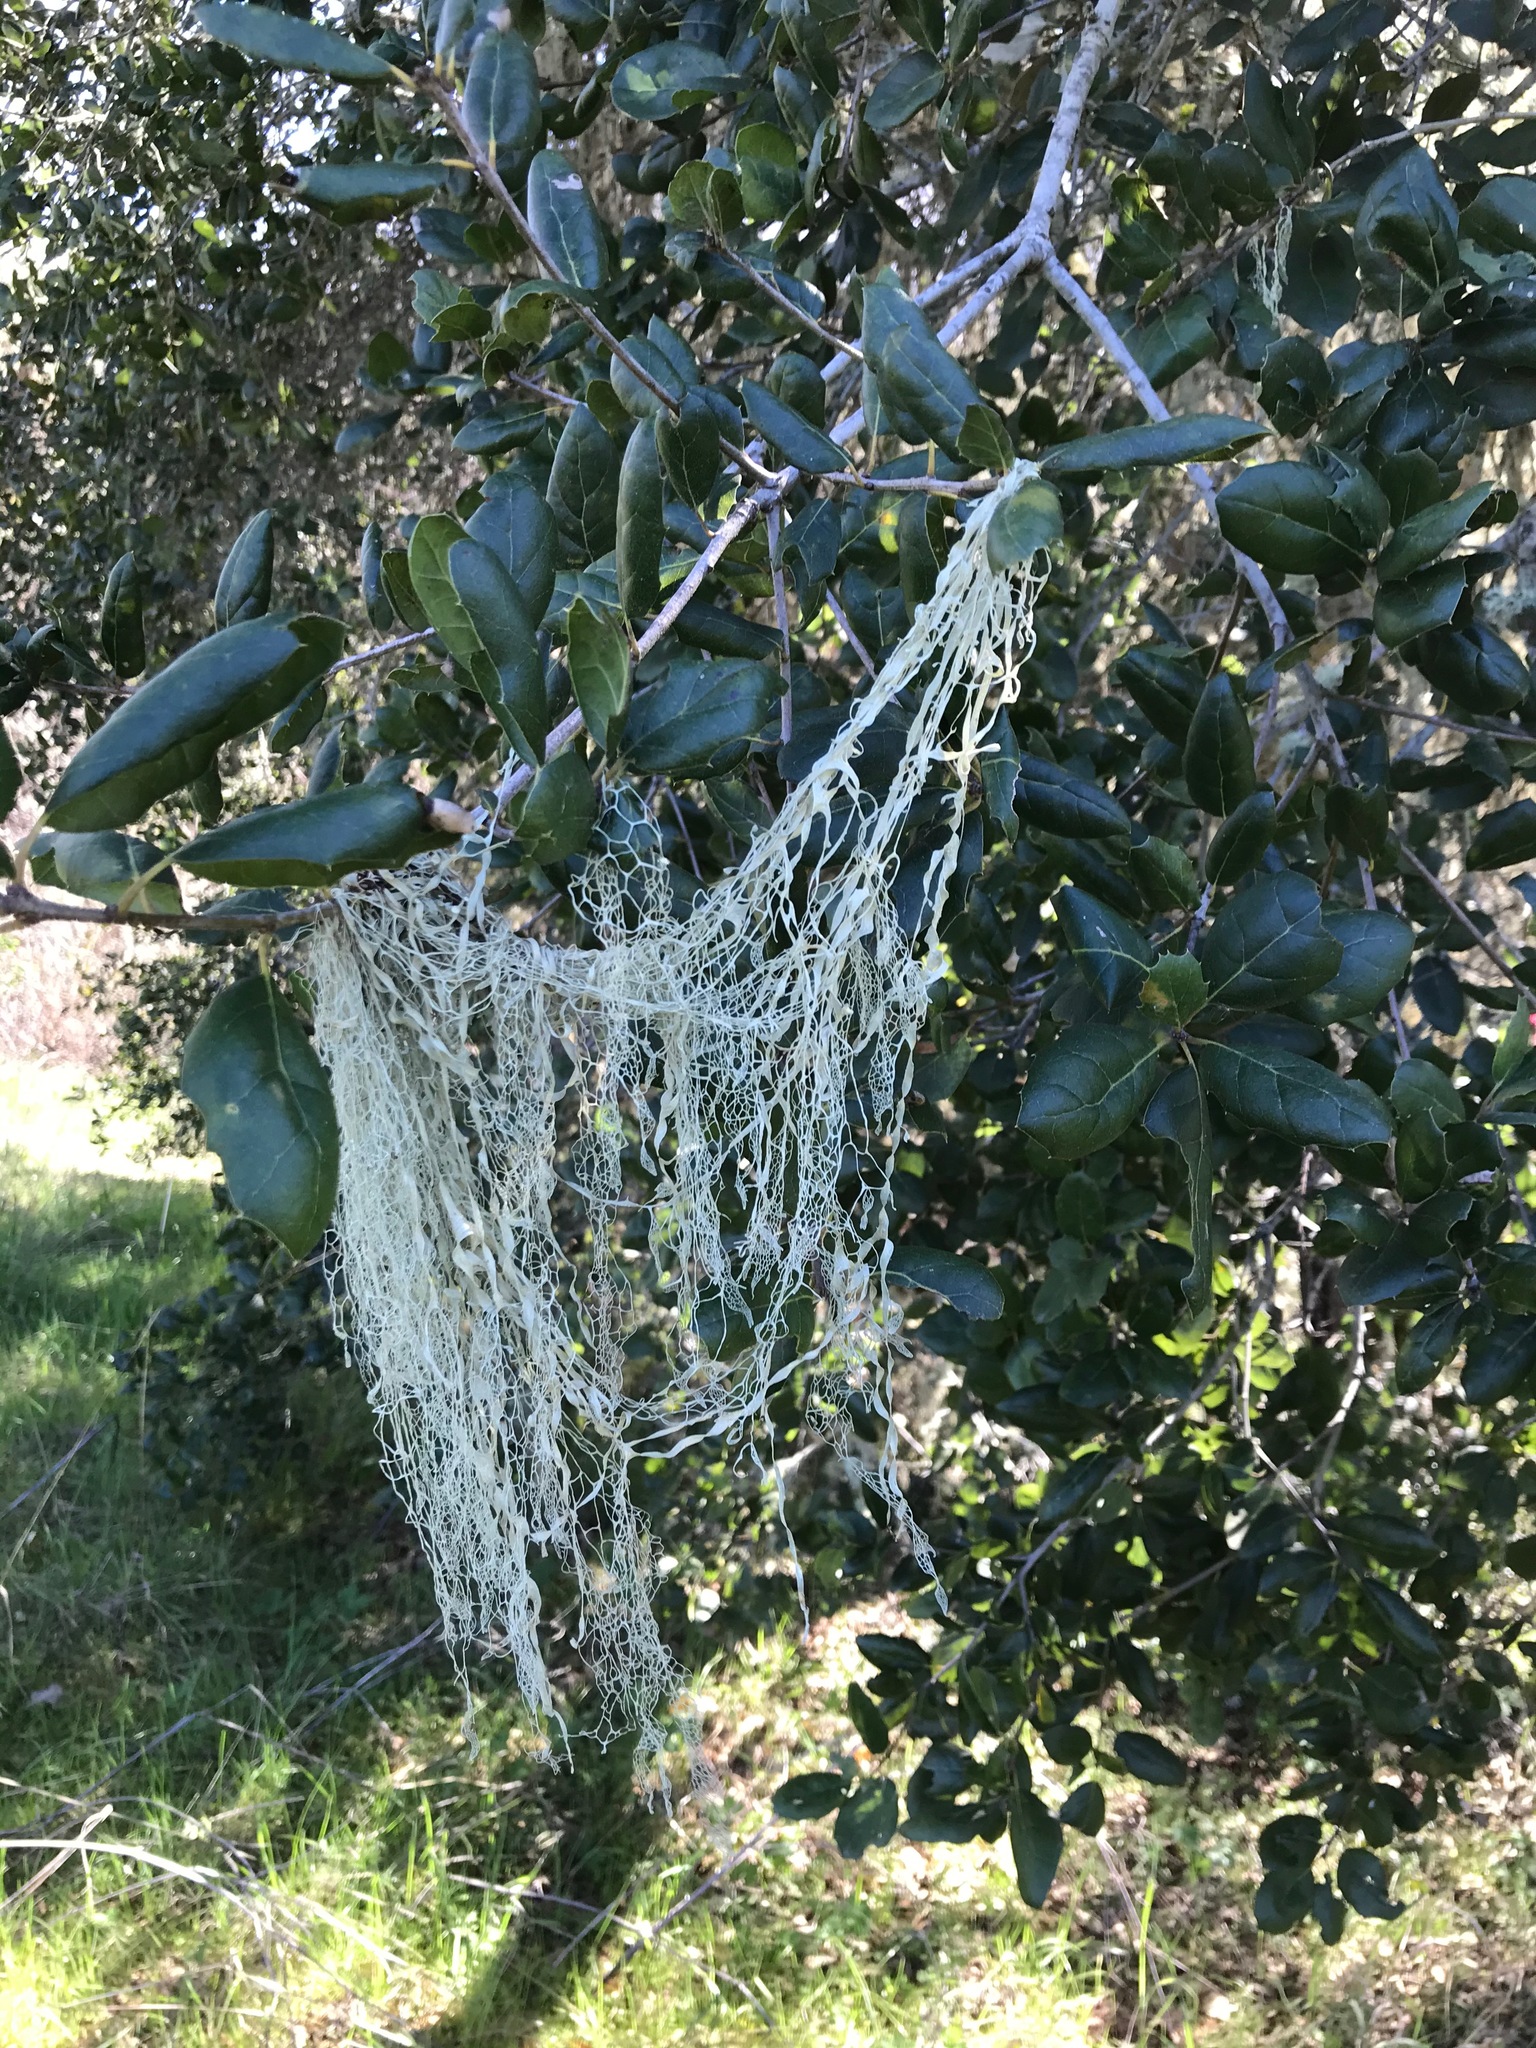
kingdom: Fungi
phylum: Ascomycota
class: Lecanoromycetes
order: Lecanorales
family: Ramalinaceae
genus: Ramalina
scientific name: Ramalina menziesii
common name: Lace lichen
